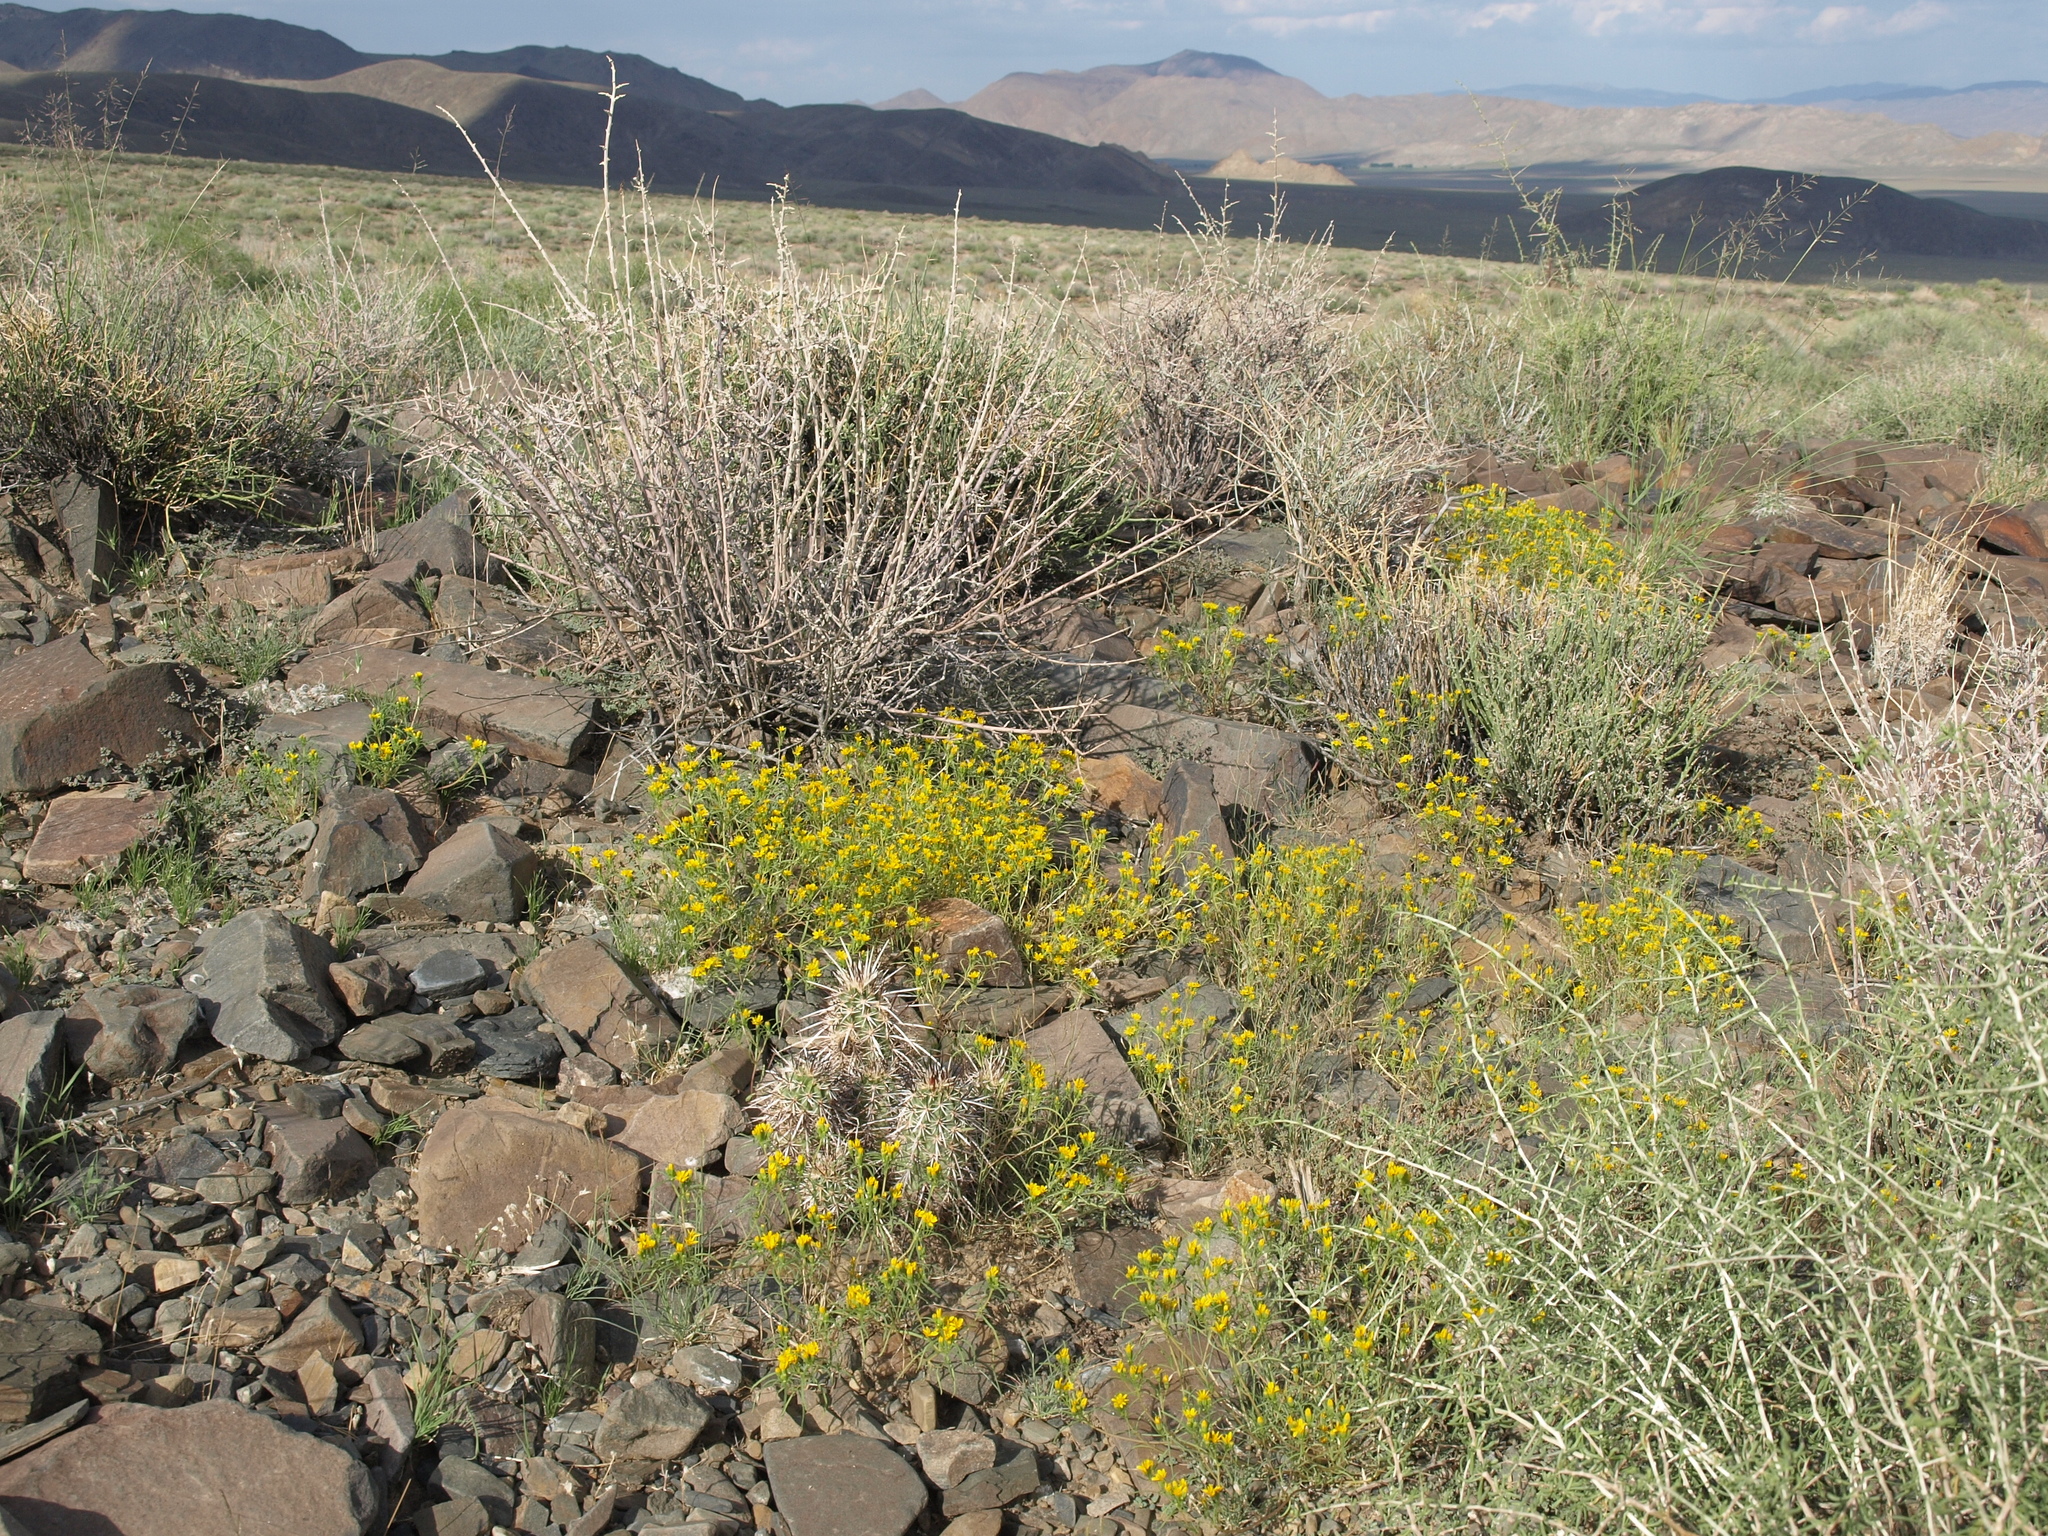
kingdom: Plantae
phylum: Tracheophyta
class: Magnoliopsida
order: Asterales
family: Asteraceae
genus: Pectis
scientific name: Pectis papposa
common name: Many-bristle chinchweed
